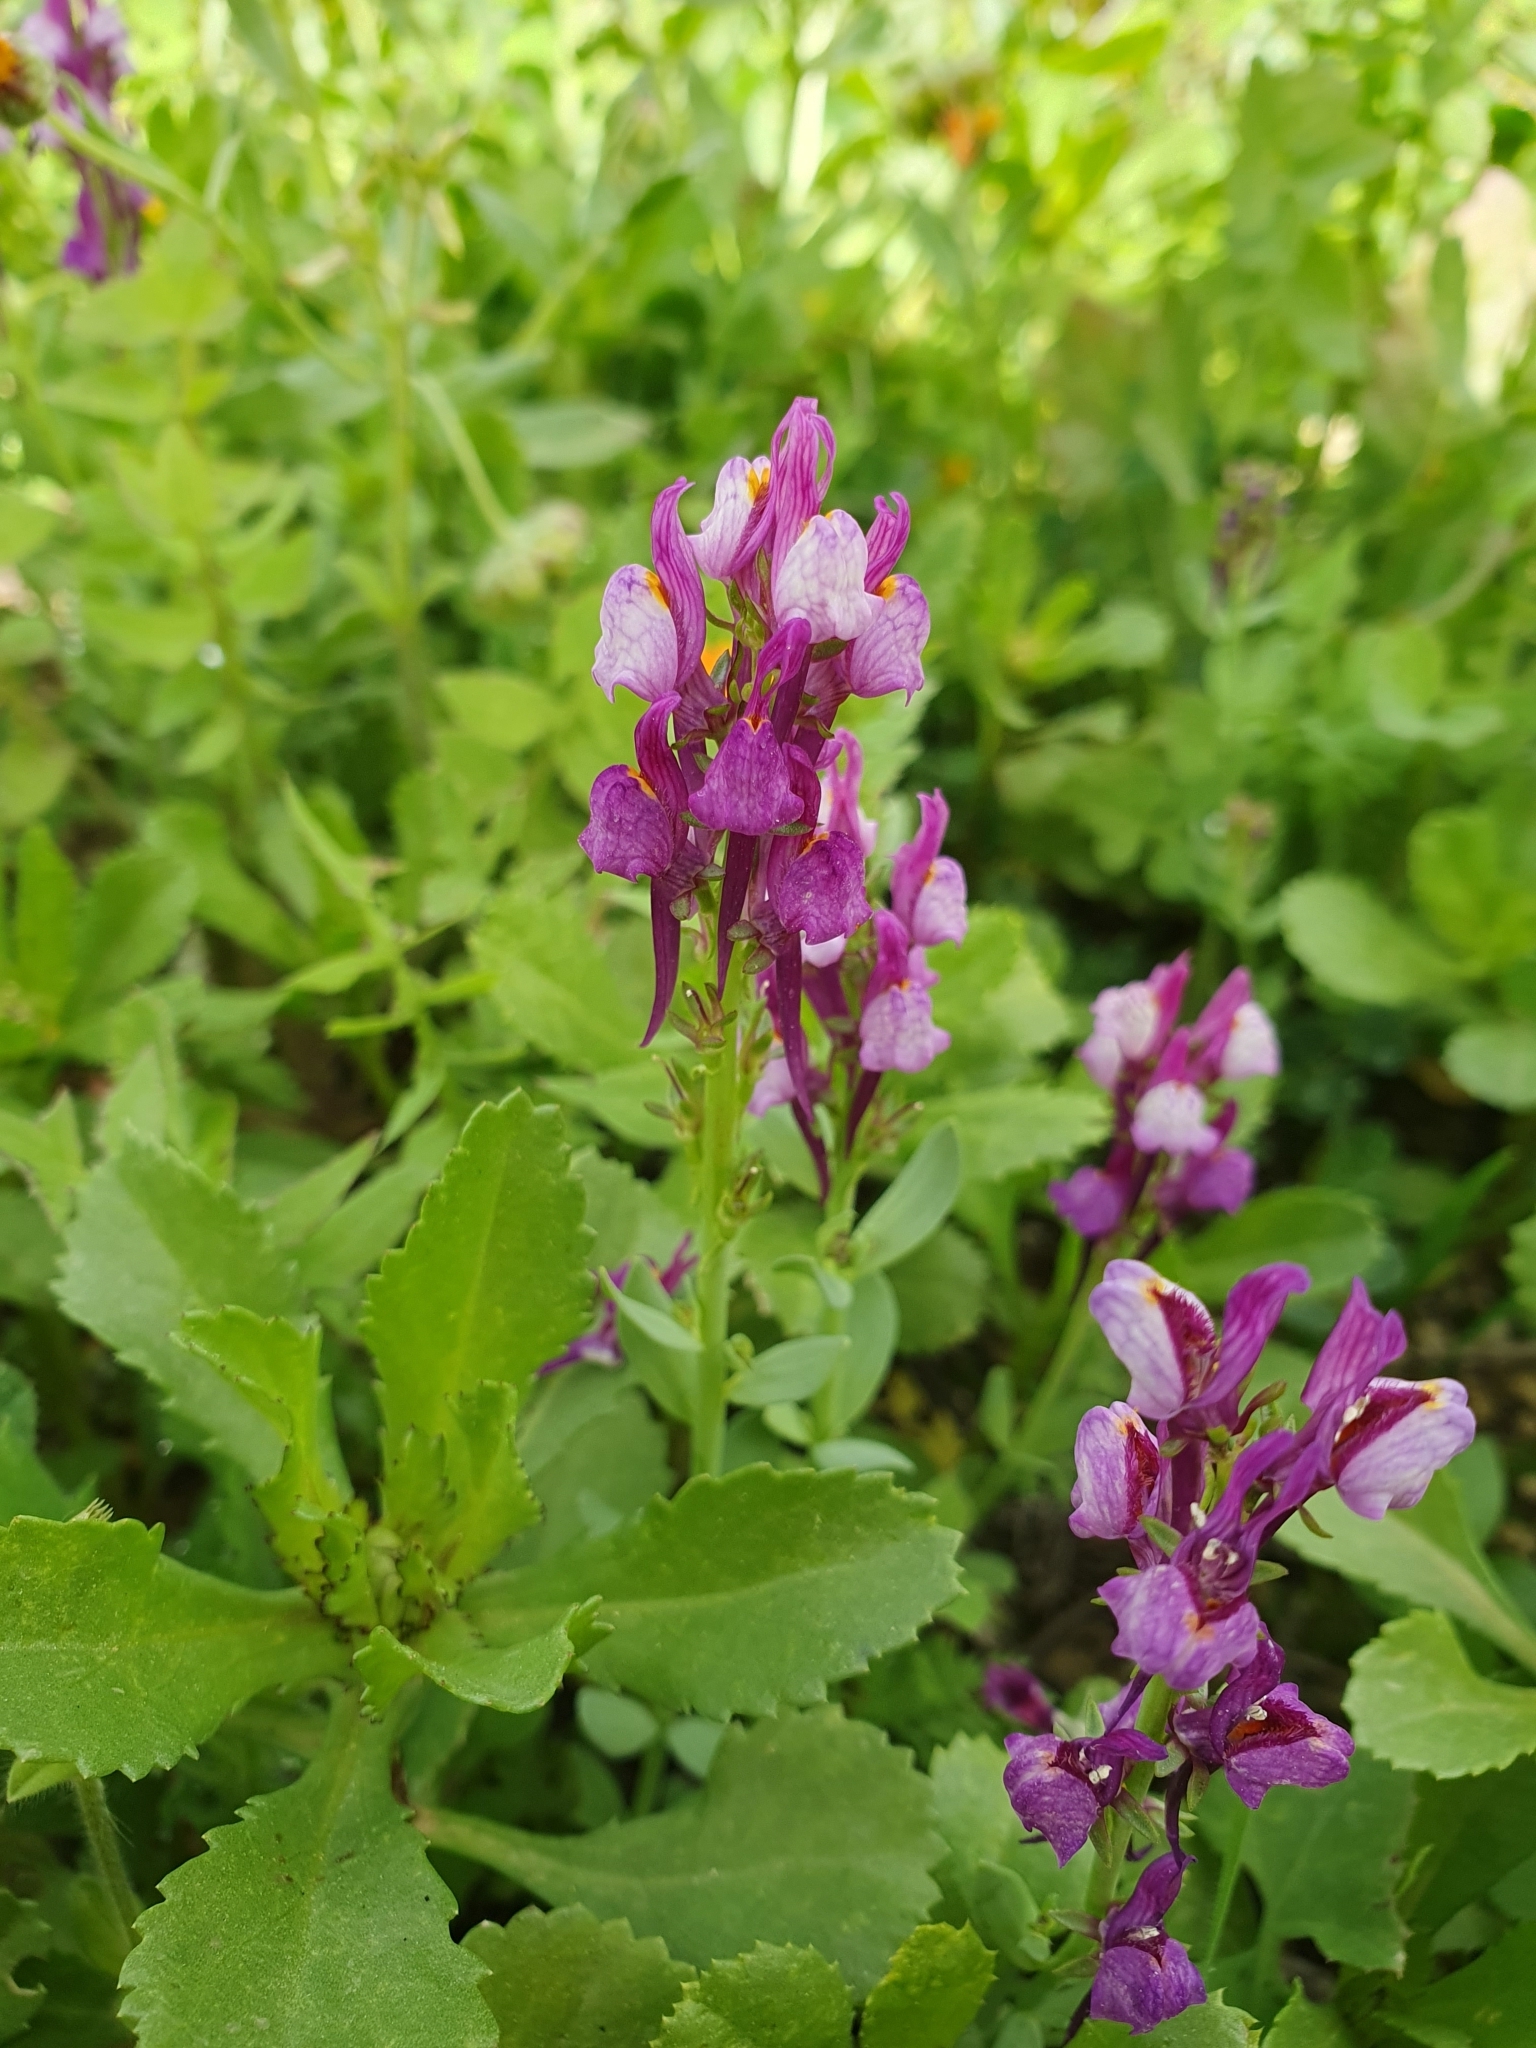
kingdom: Plantae
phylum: Tracheophyta
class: Magnoliopsida
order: Lamiales
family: Plantaginaceae
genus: Linaria
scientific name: Linaria virgata
